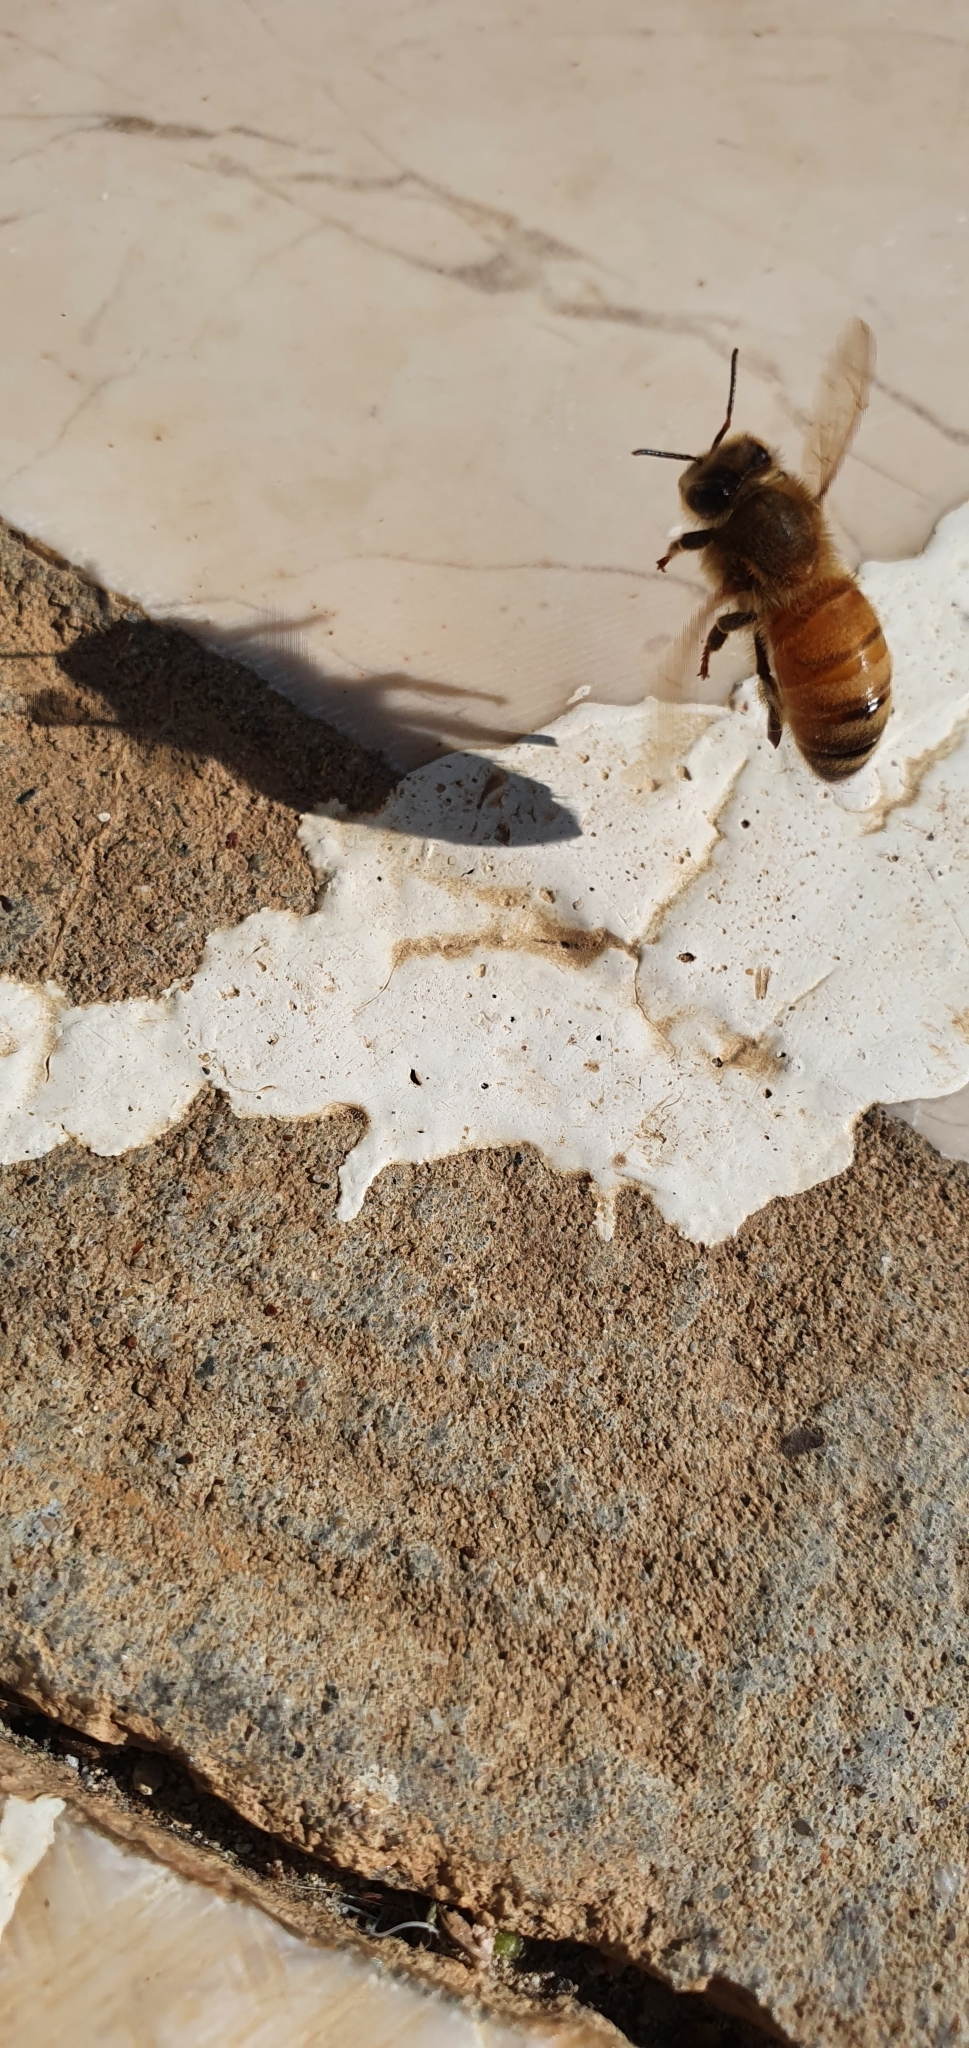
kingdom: Animalia
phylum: Arthropoda
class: Insecta
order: Hymenoptera
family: Apidae
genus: Apis
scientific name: Apis mellifera
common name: Honey bee
